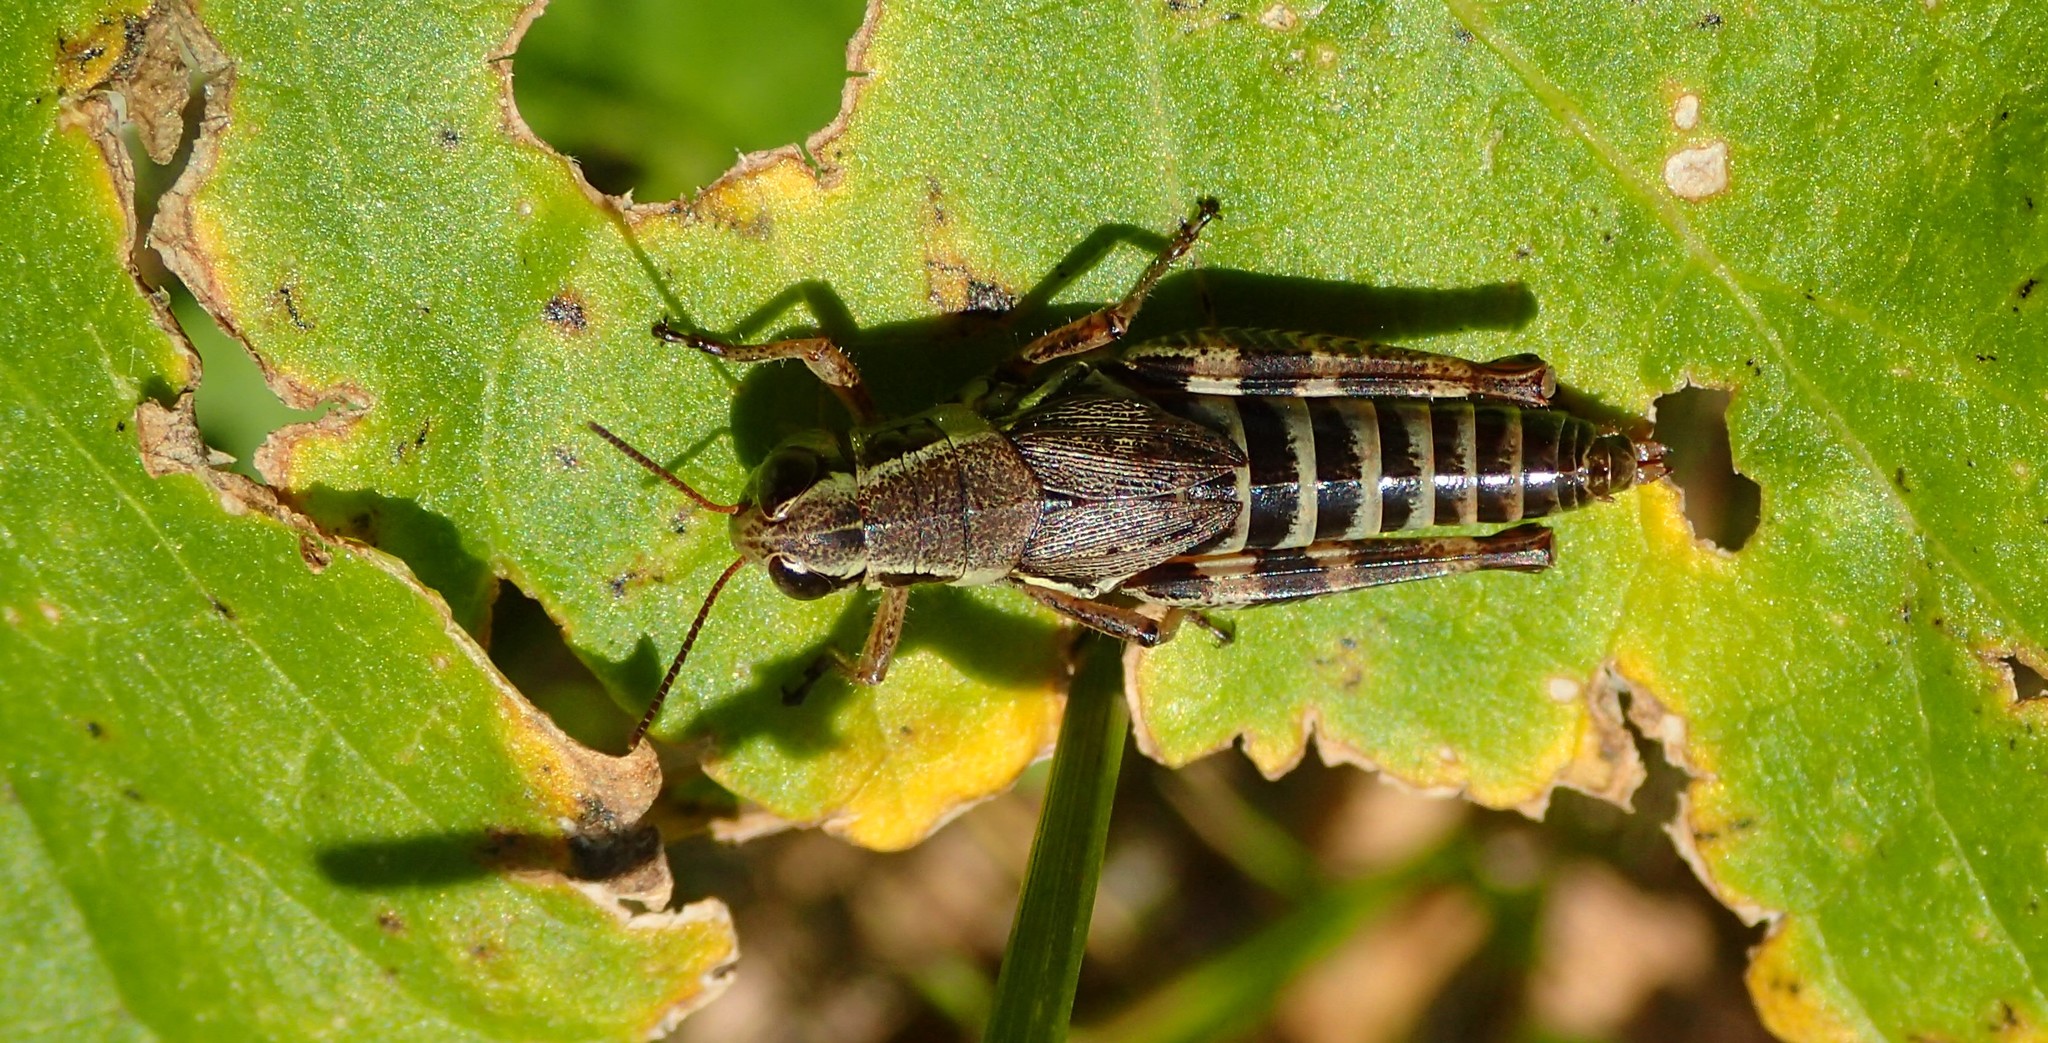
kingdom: Animalia
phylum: Arthropoda
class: Insecta
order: Orthoptera
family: Acrididae
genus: Melanoplus
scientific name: Melanoplus dawsoni
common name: Dawson grasshopper
